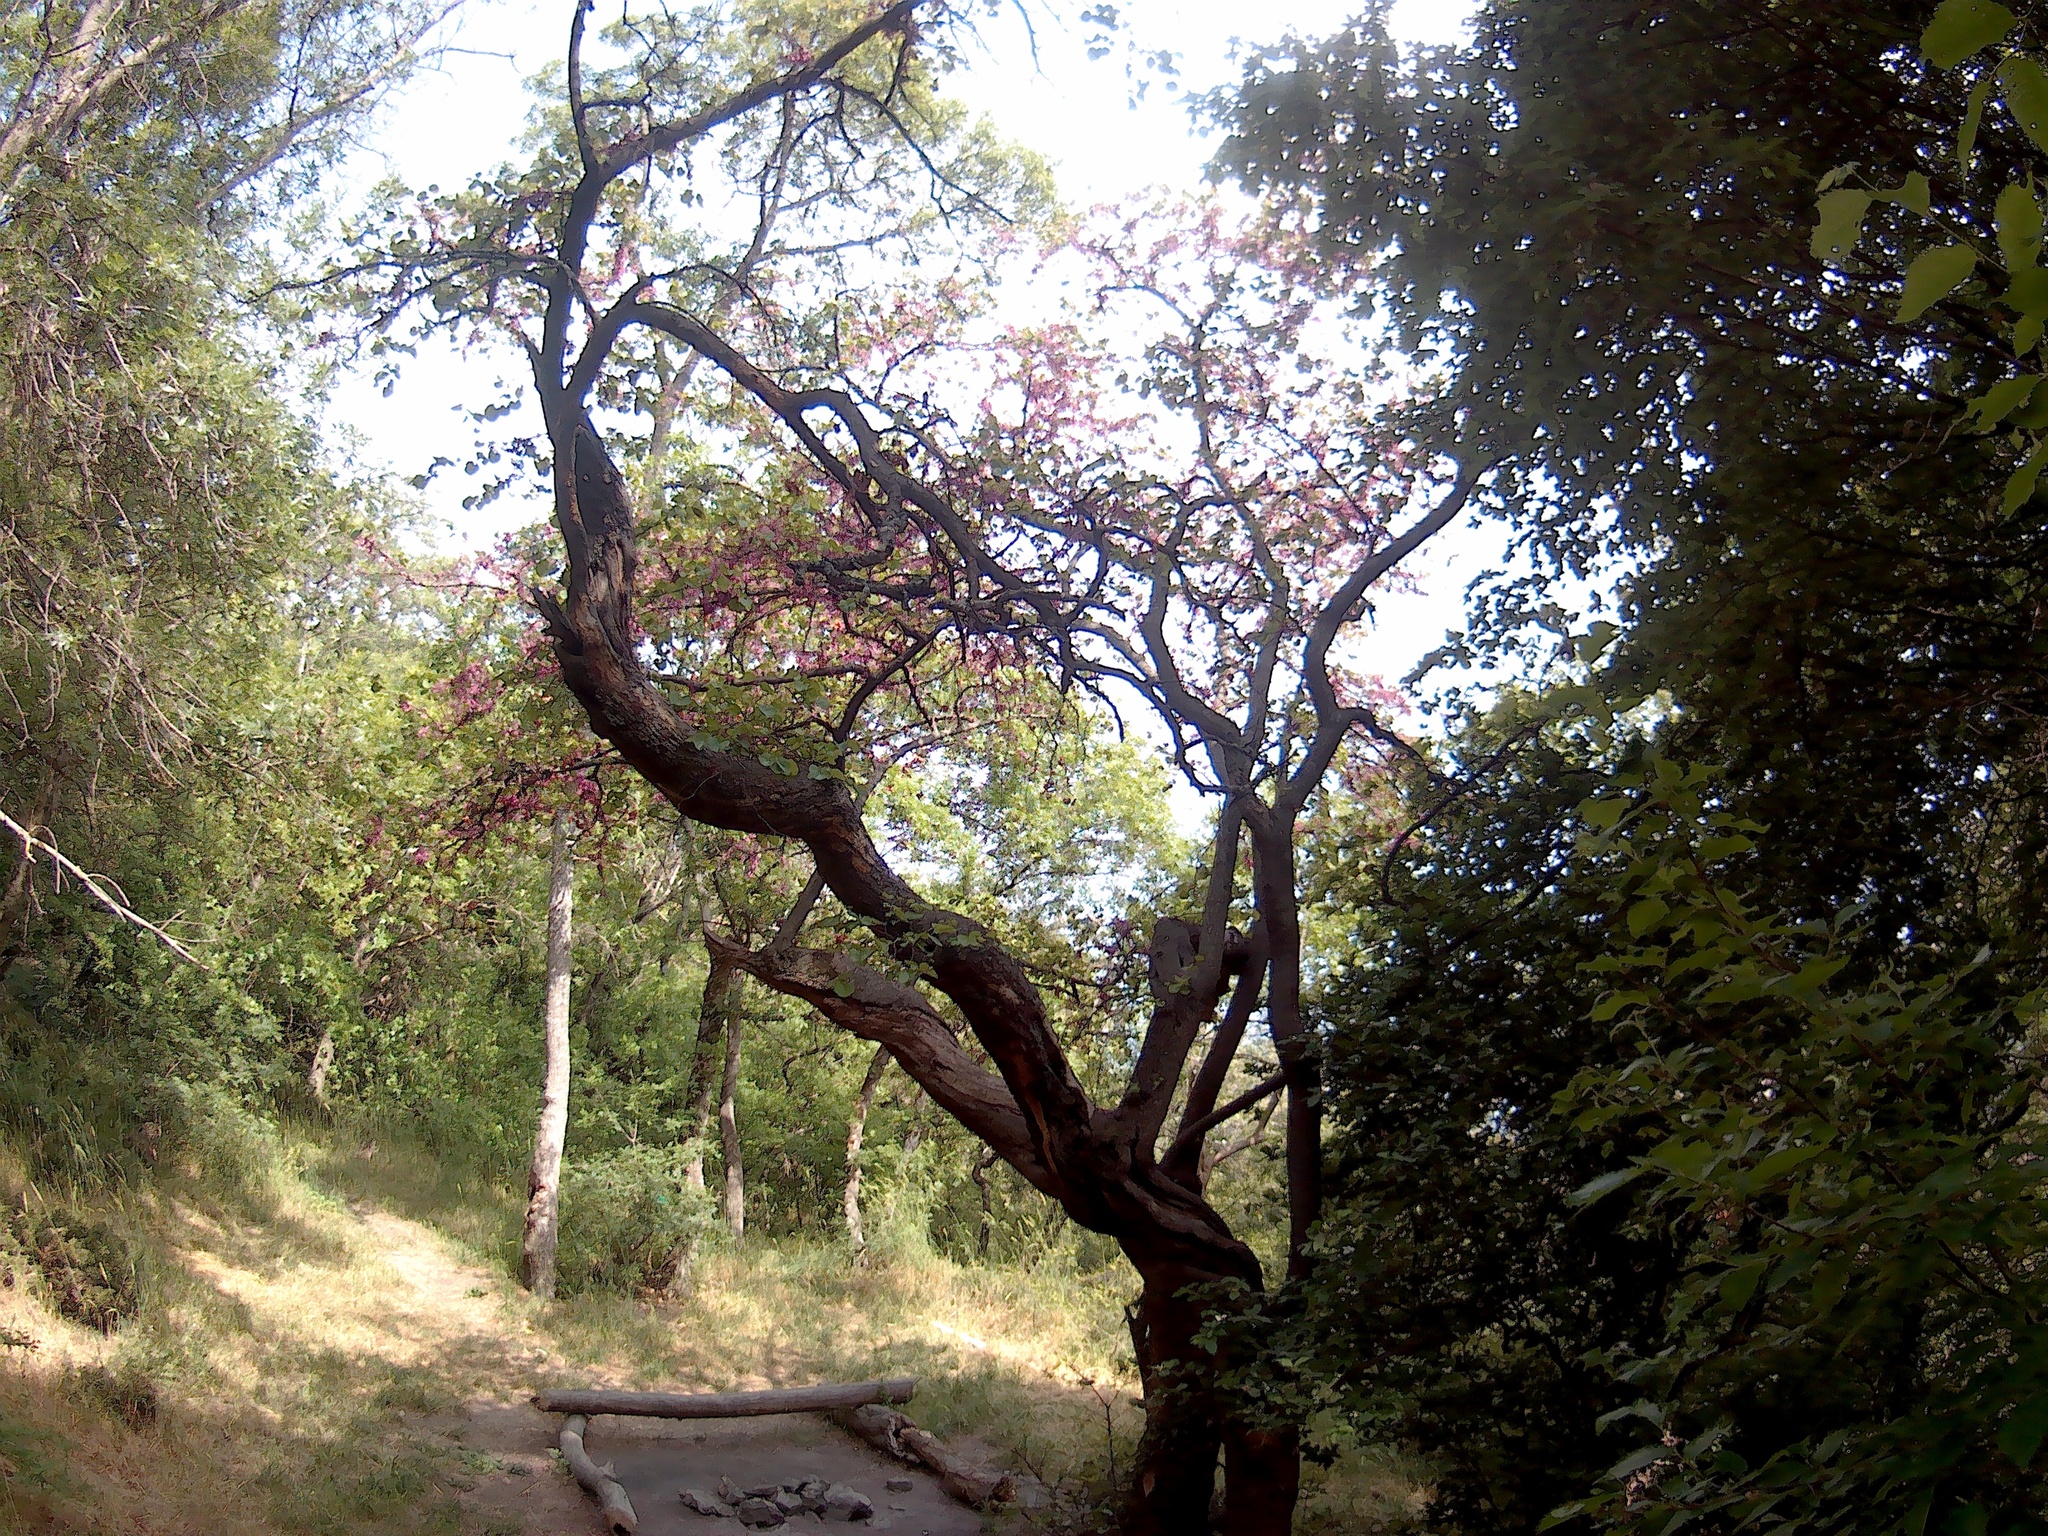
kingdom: Plantae
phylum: Tracheophyta
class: Magnoliopsida
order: Fabales
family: Fabaceae
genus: Cercis
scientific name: Cercis siliquastrum
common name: Judas tree
